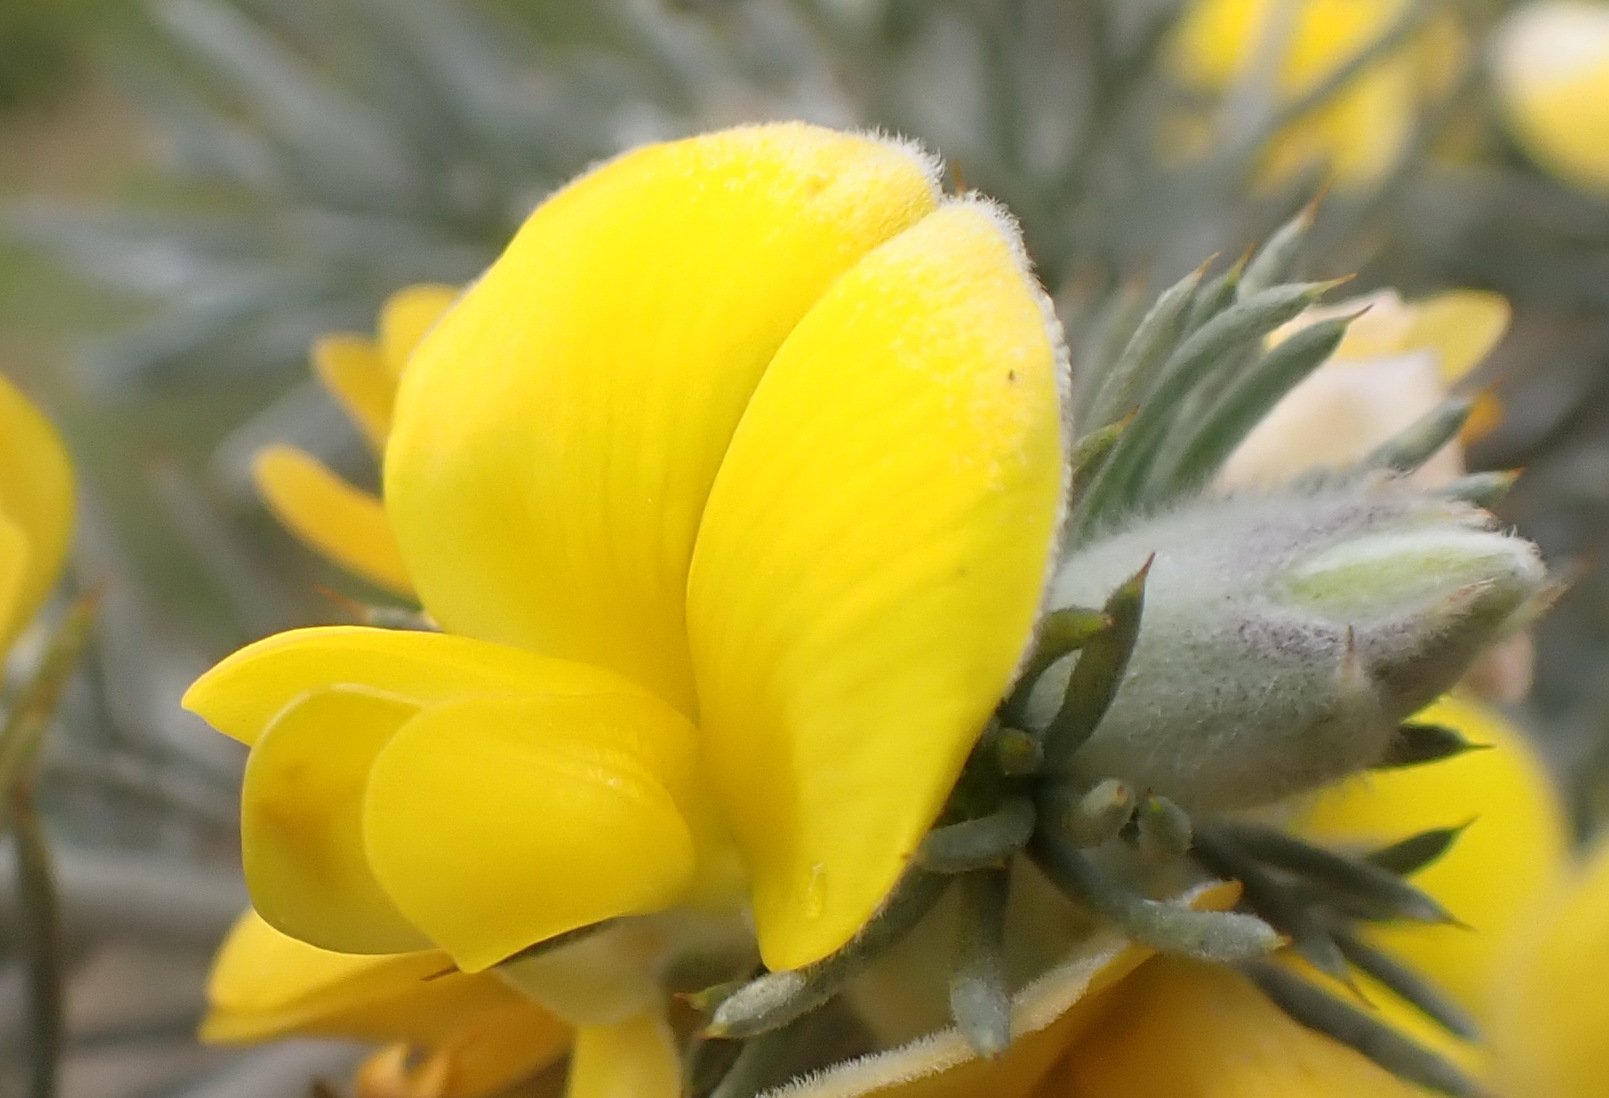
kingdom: Plantae
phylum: Tracheophyta
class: Magnoliopsida
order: Fabales
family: Fabaceae
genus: Aspalathus
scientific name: Aspalathus hystrix
